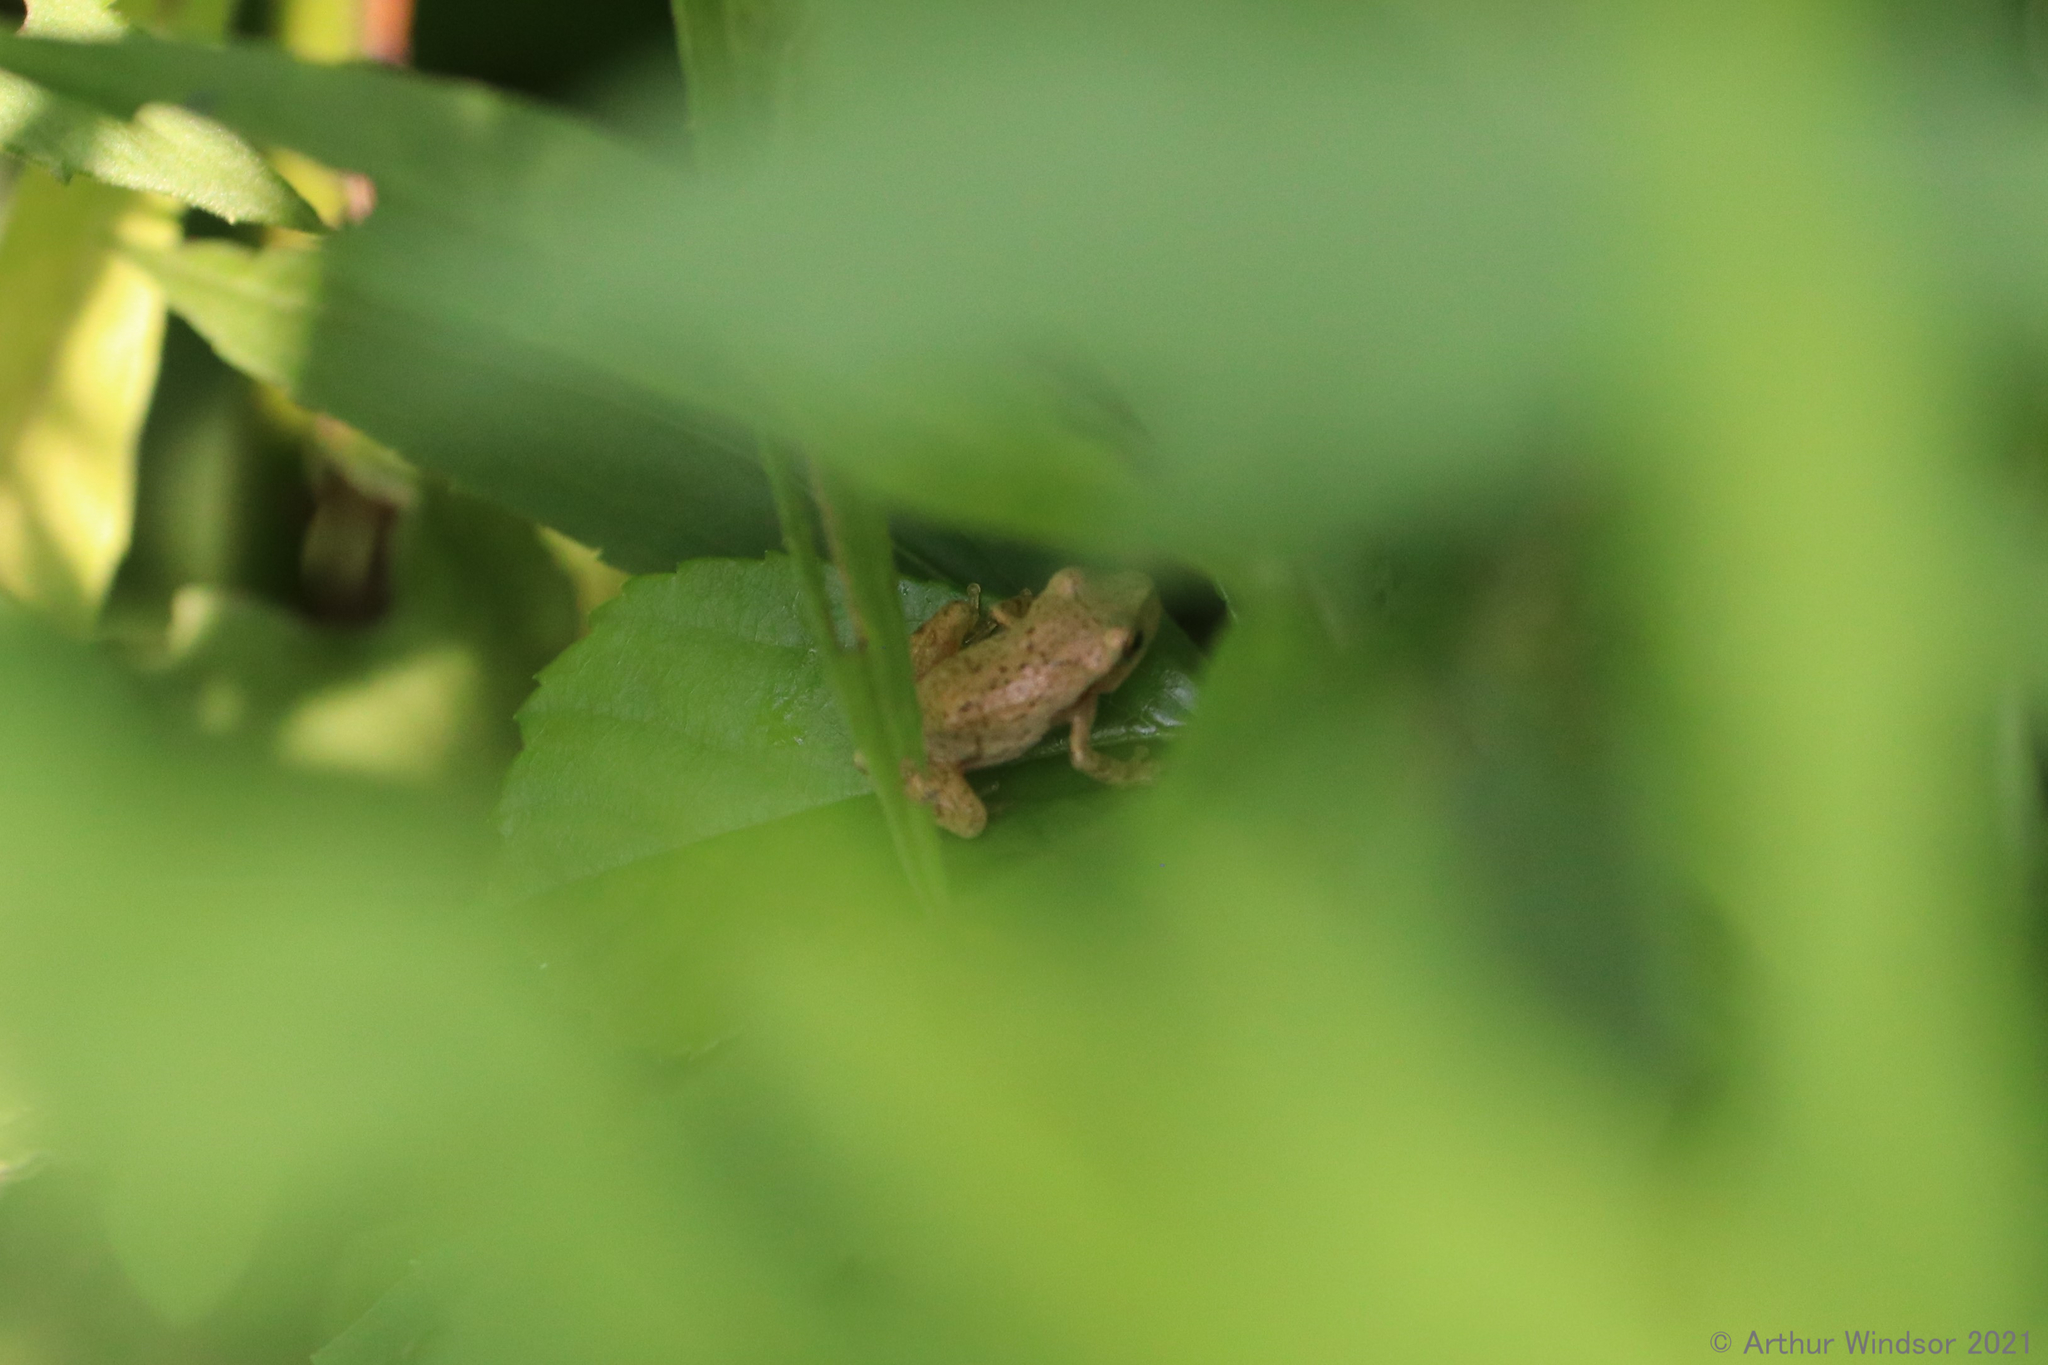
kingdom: Animalia
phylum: Chordata
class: Amphibia
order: Anura
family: Hylidae
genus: Pseudacris
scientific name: Pseudacris crucifer
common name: Spring peeper
